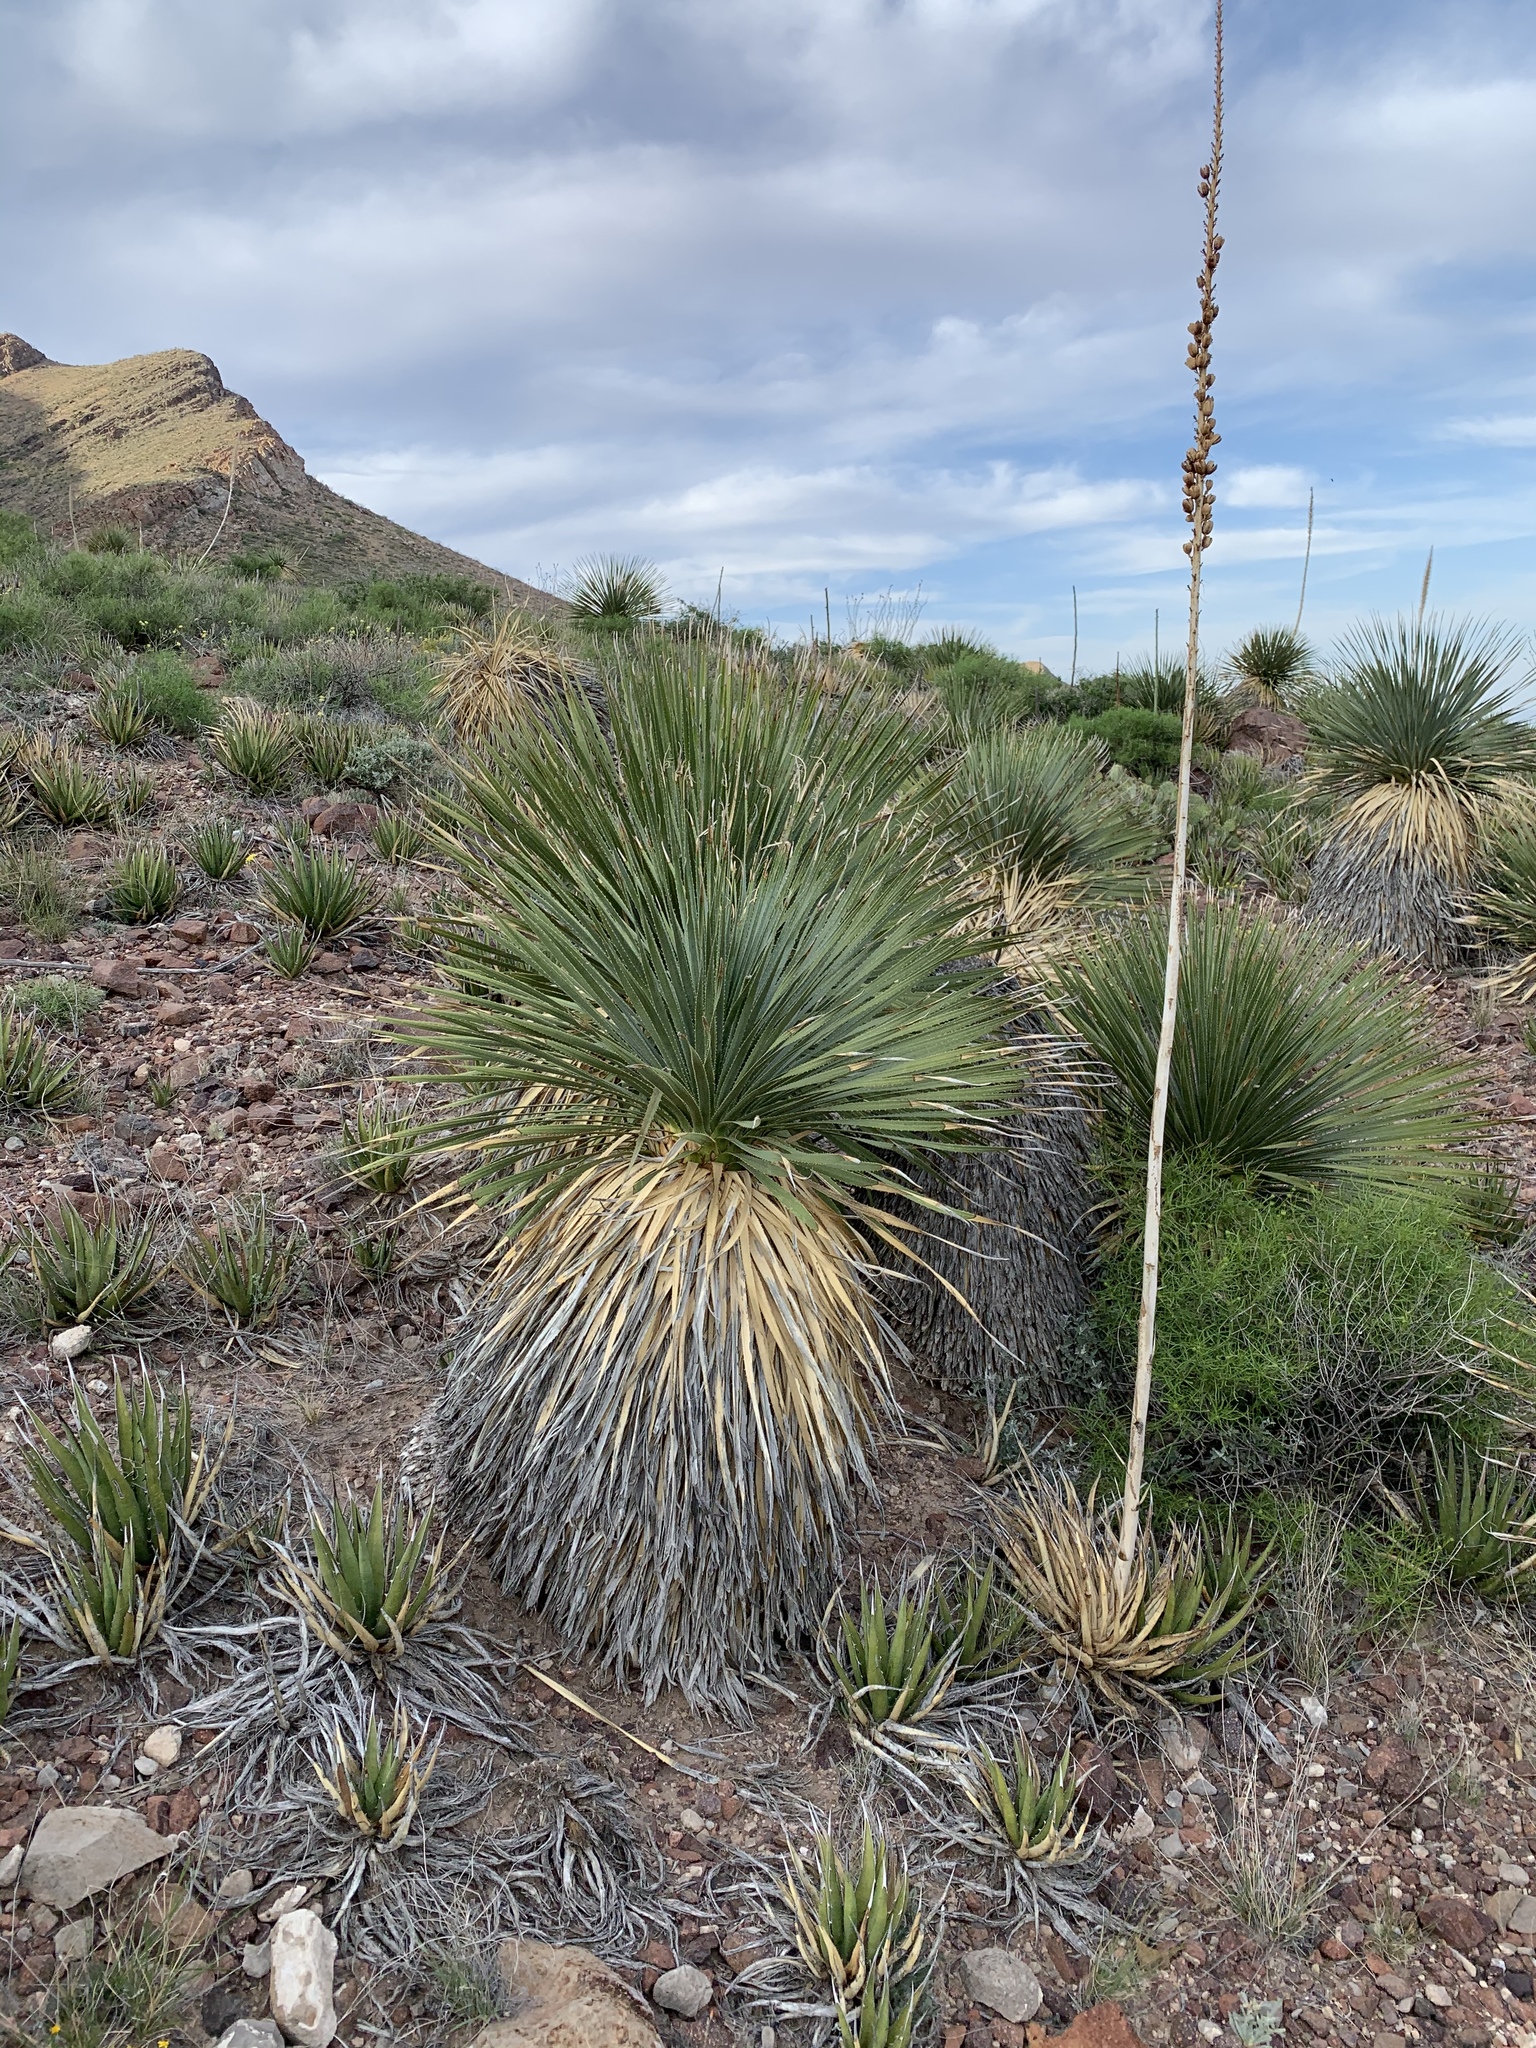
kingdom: Plantae
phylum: Tracheophyta
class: Liliopsida
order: Asparagales
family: Asparagaceae
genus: Dasylirion
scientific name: Dasylirion wheeleri
